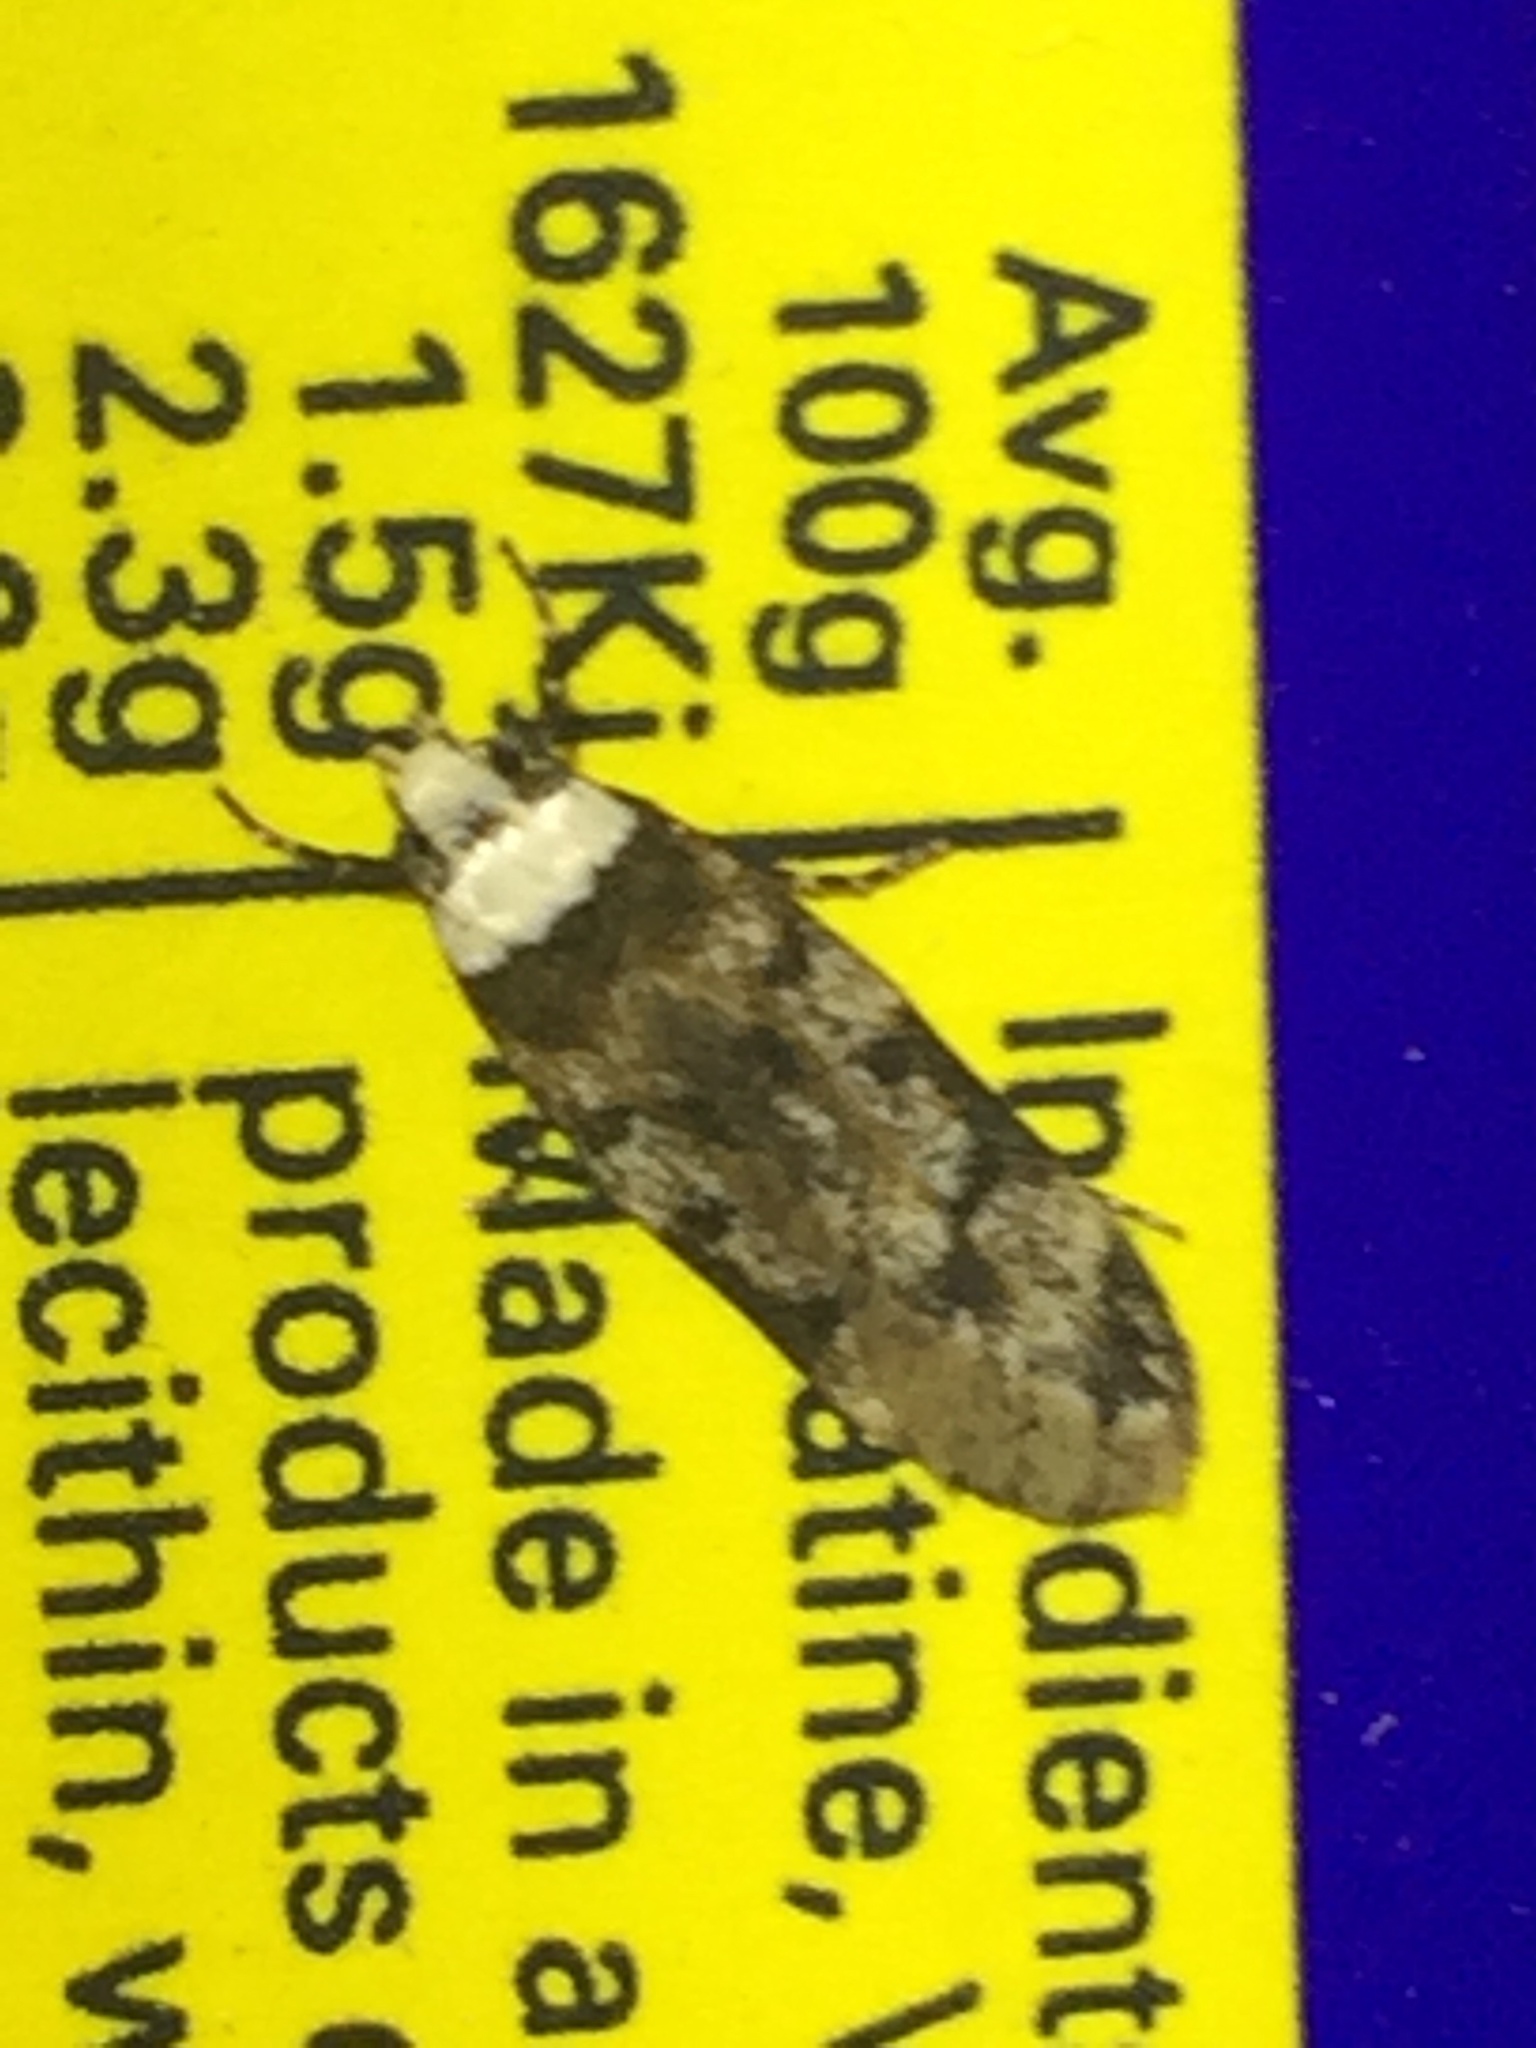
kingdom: Animalia
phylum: Arthropoda
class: Insecta
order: Lepidoptera
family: Oecophoridae
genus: Endrosis
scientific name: Endrosis sarcitrella
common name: White-shouldered house moth
